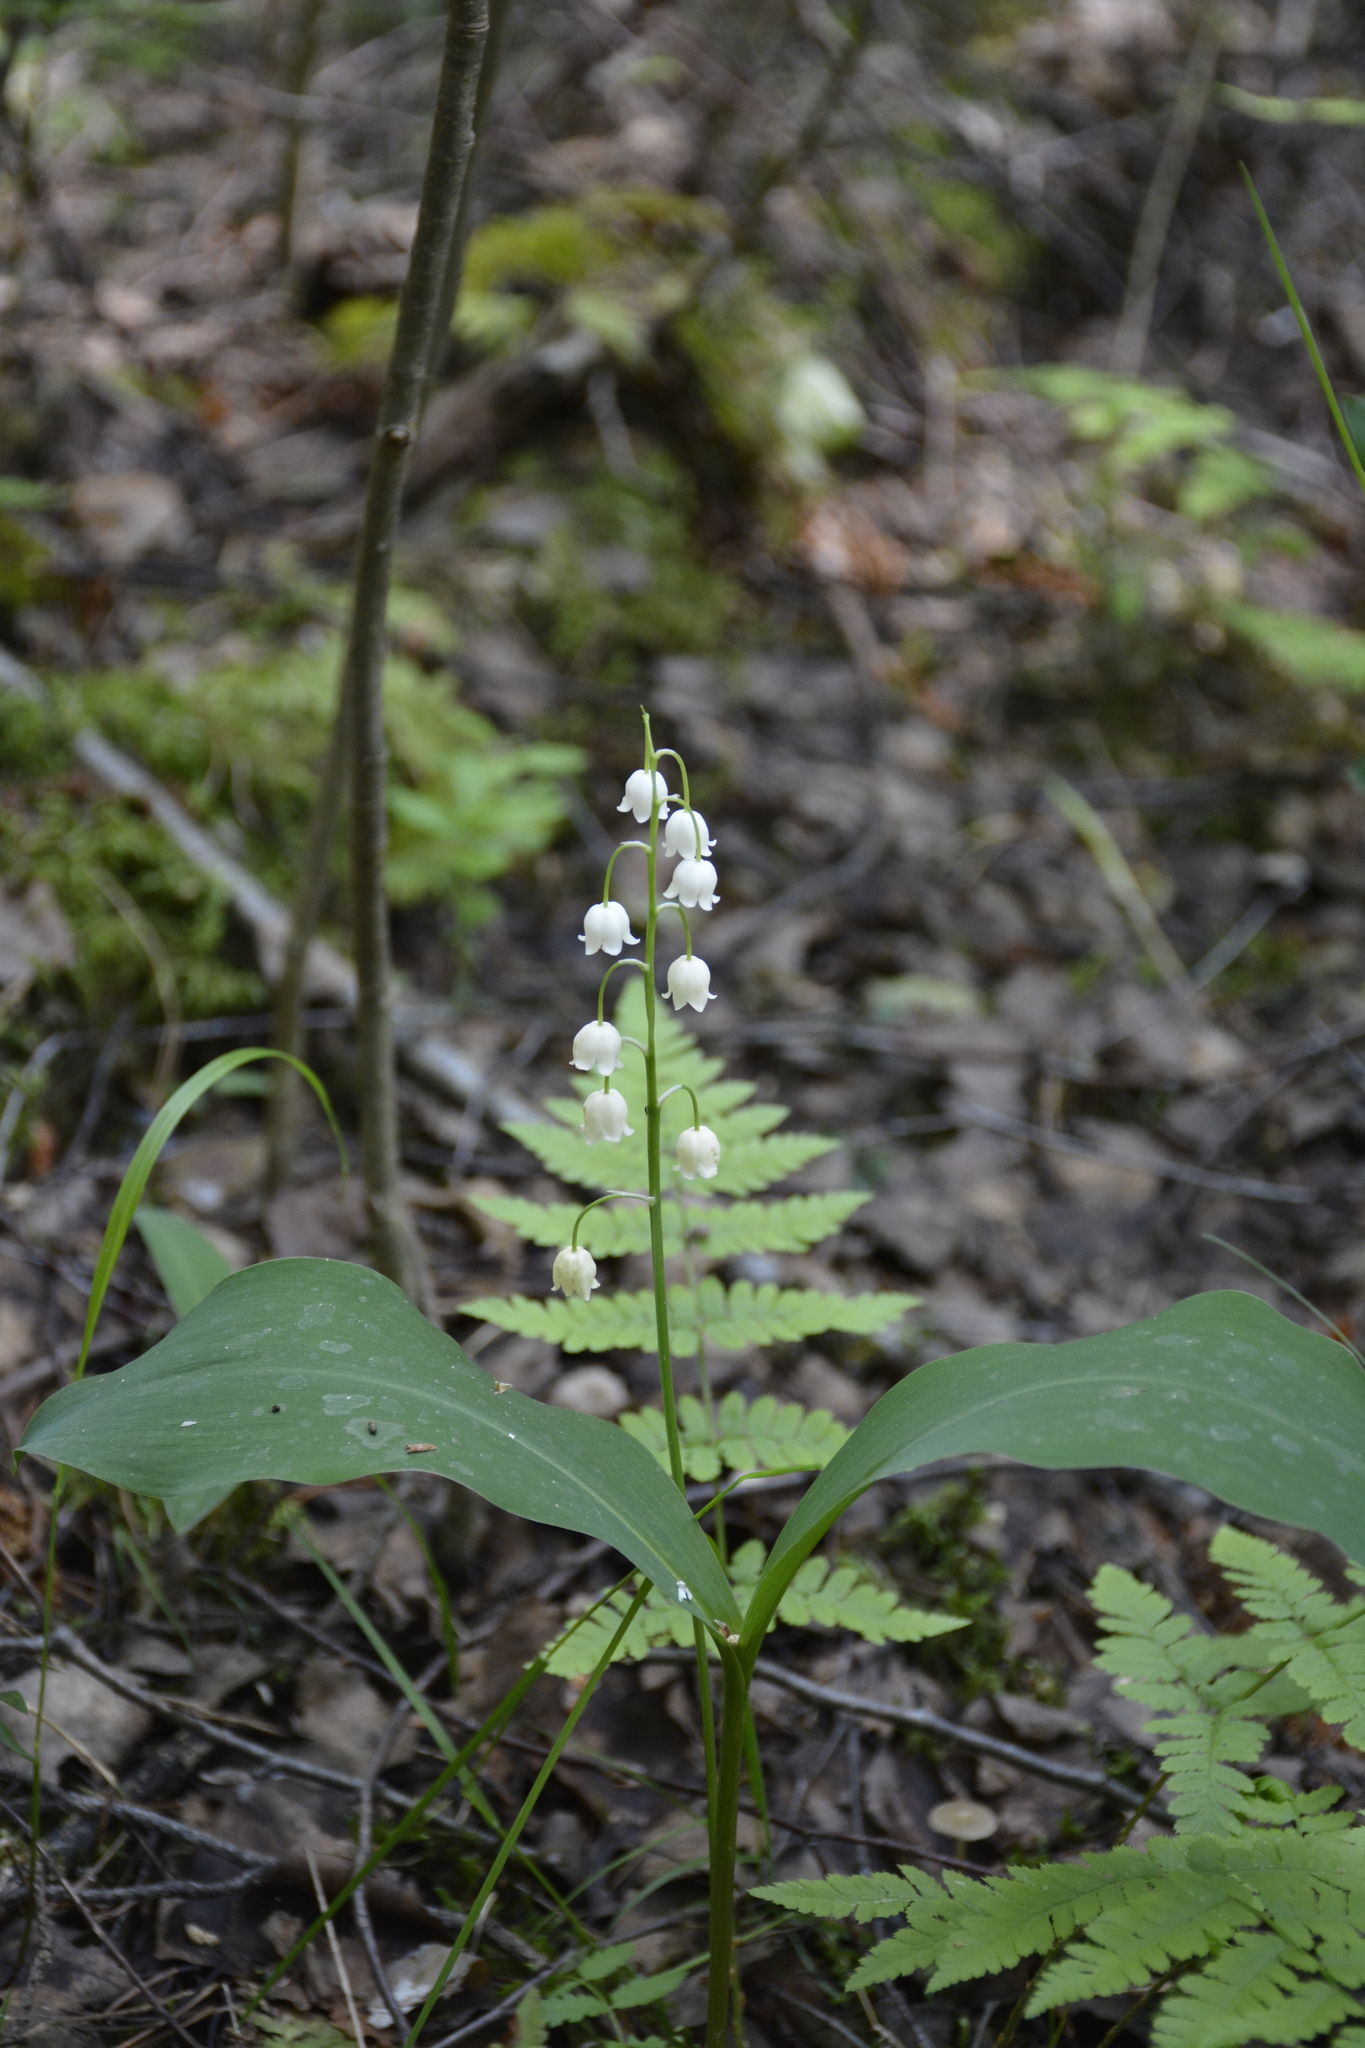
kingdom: Plantae
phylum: Tracheophyta
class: Liliopsida
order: Asparagales
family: Asparagaceae
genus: Convallaria
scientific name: Convallaria majalis
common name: Lily-of-the-valley
